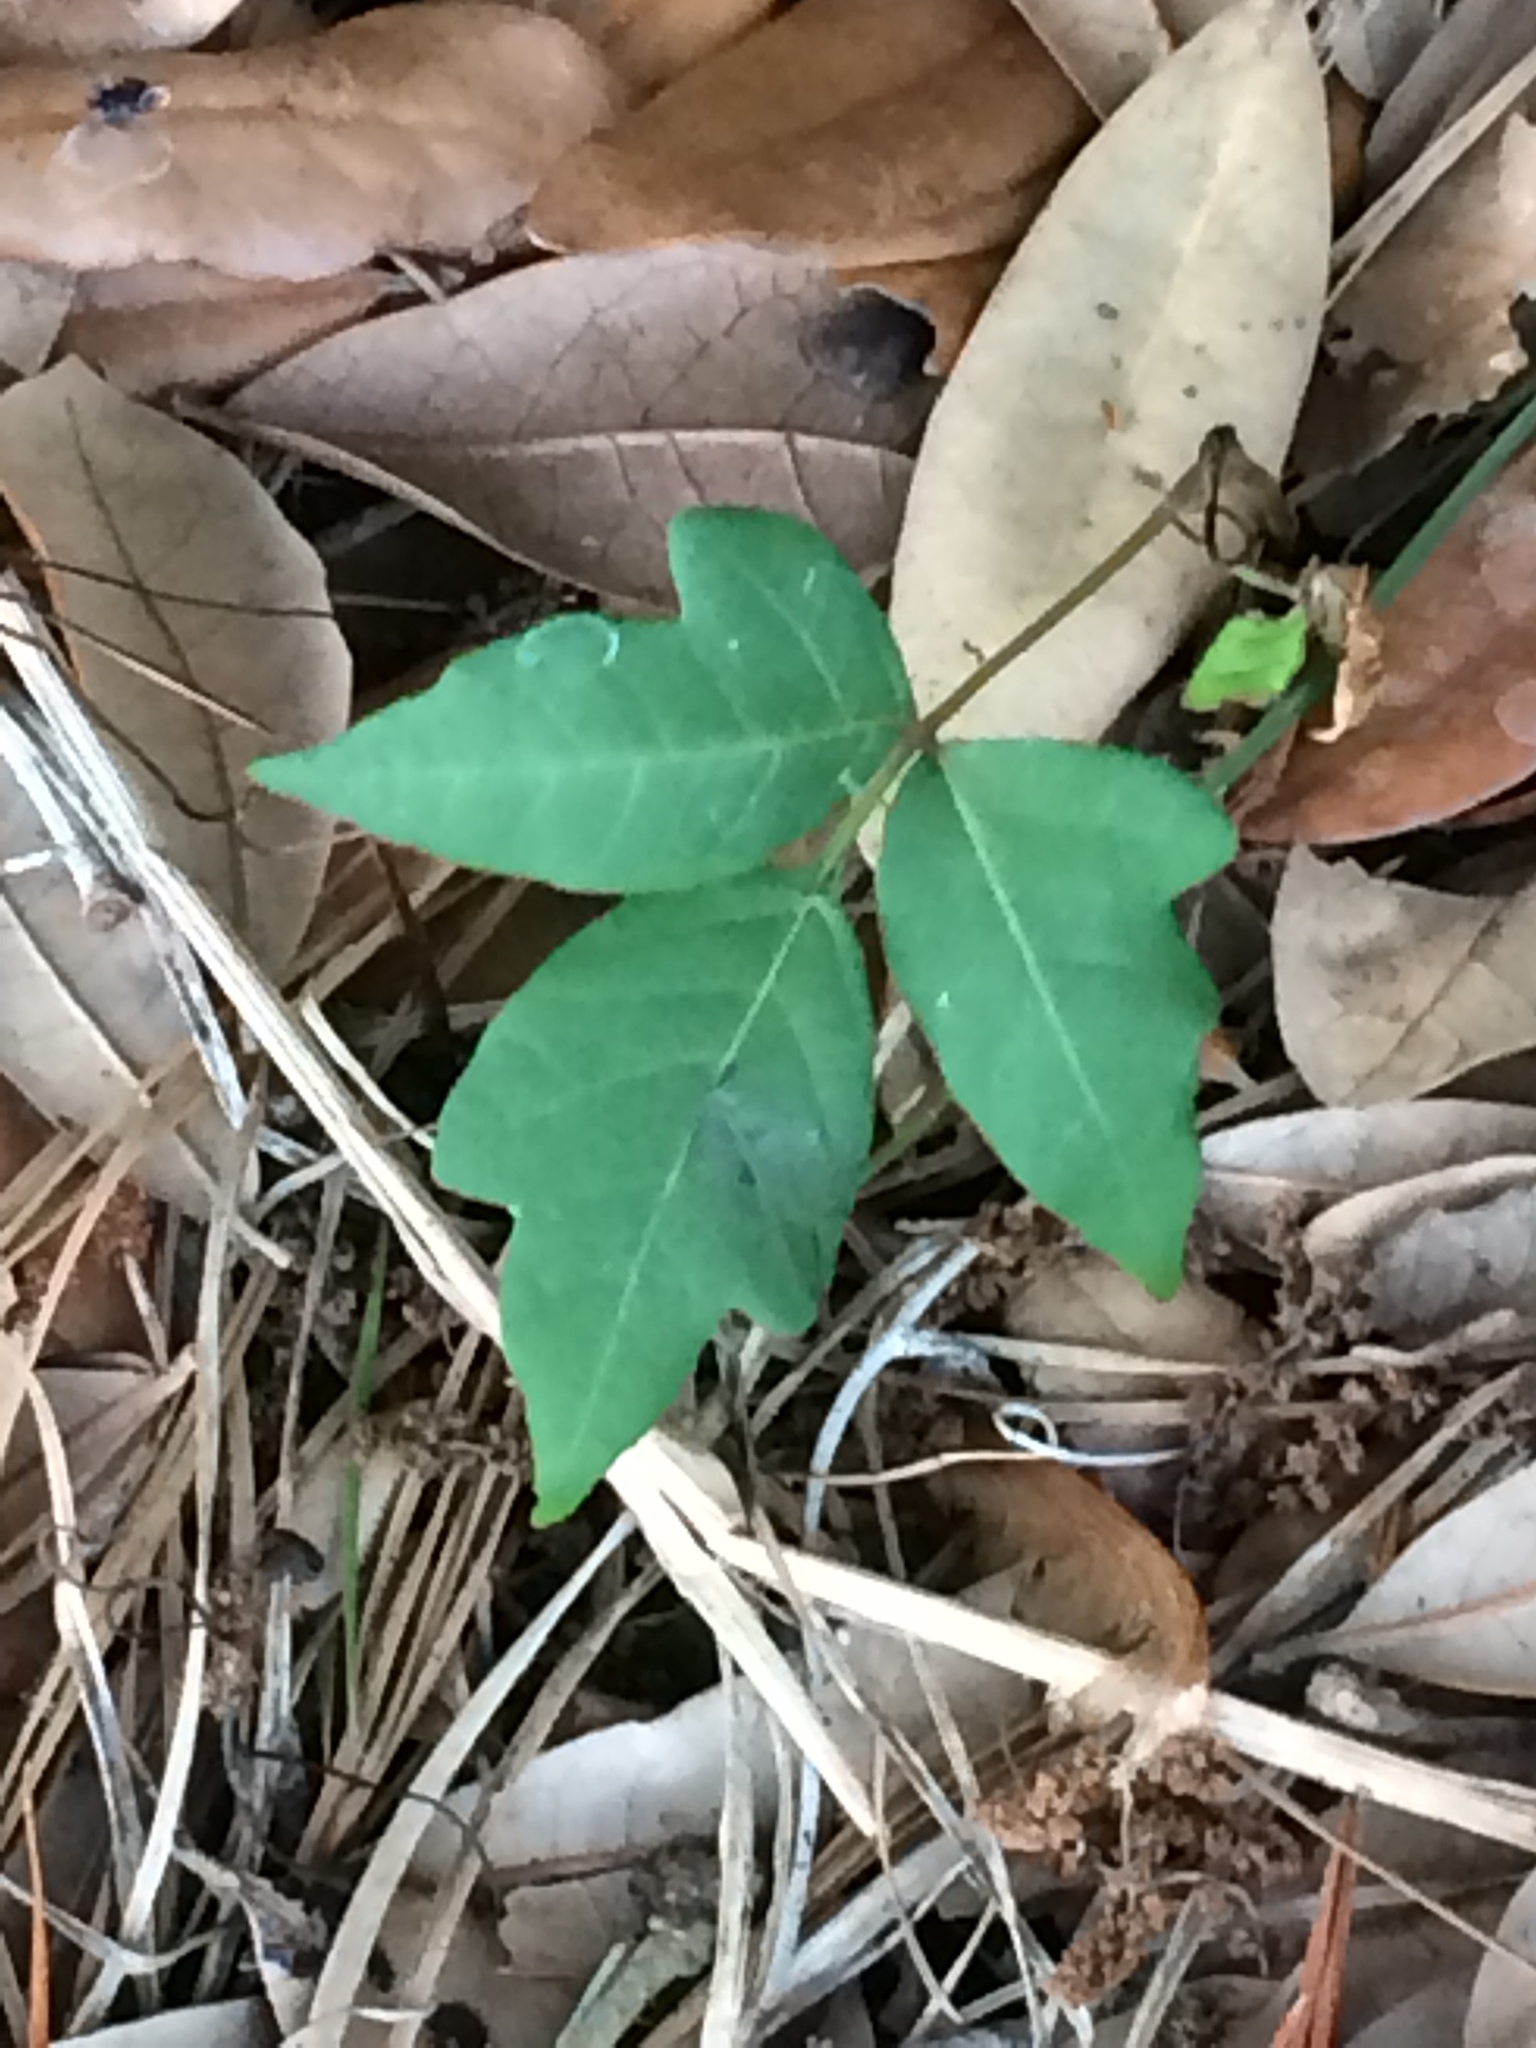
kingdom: Plantae
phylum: Tracheophyta
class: Magnoliopsida
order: Sapindales
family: Anacardiaceae
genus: Toxicodendron
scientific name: Toxicodendron radicans
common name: Poison ivy
